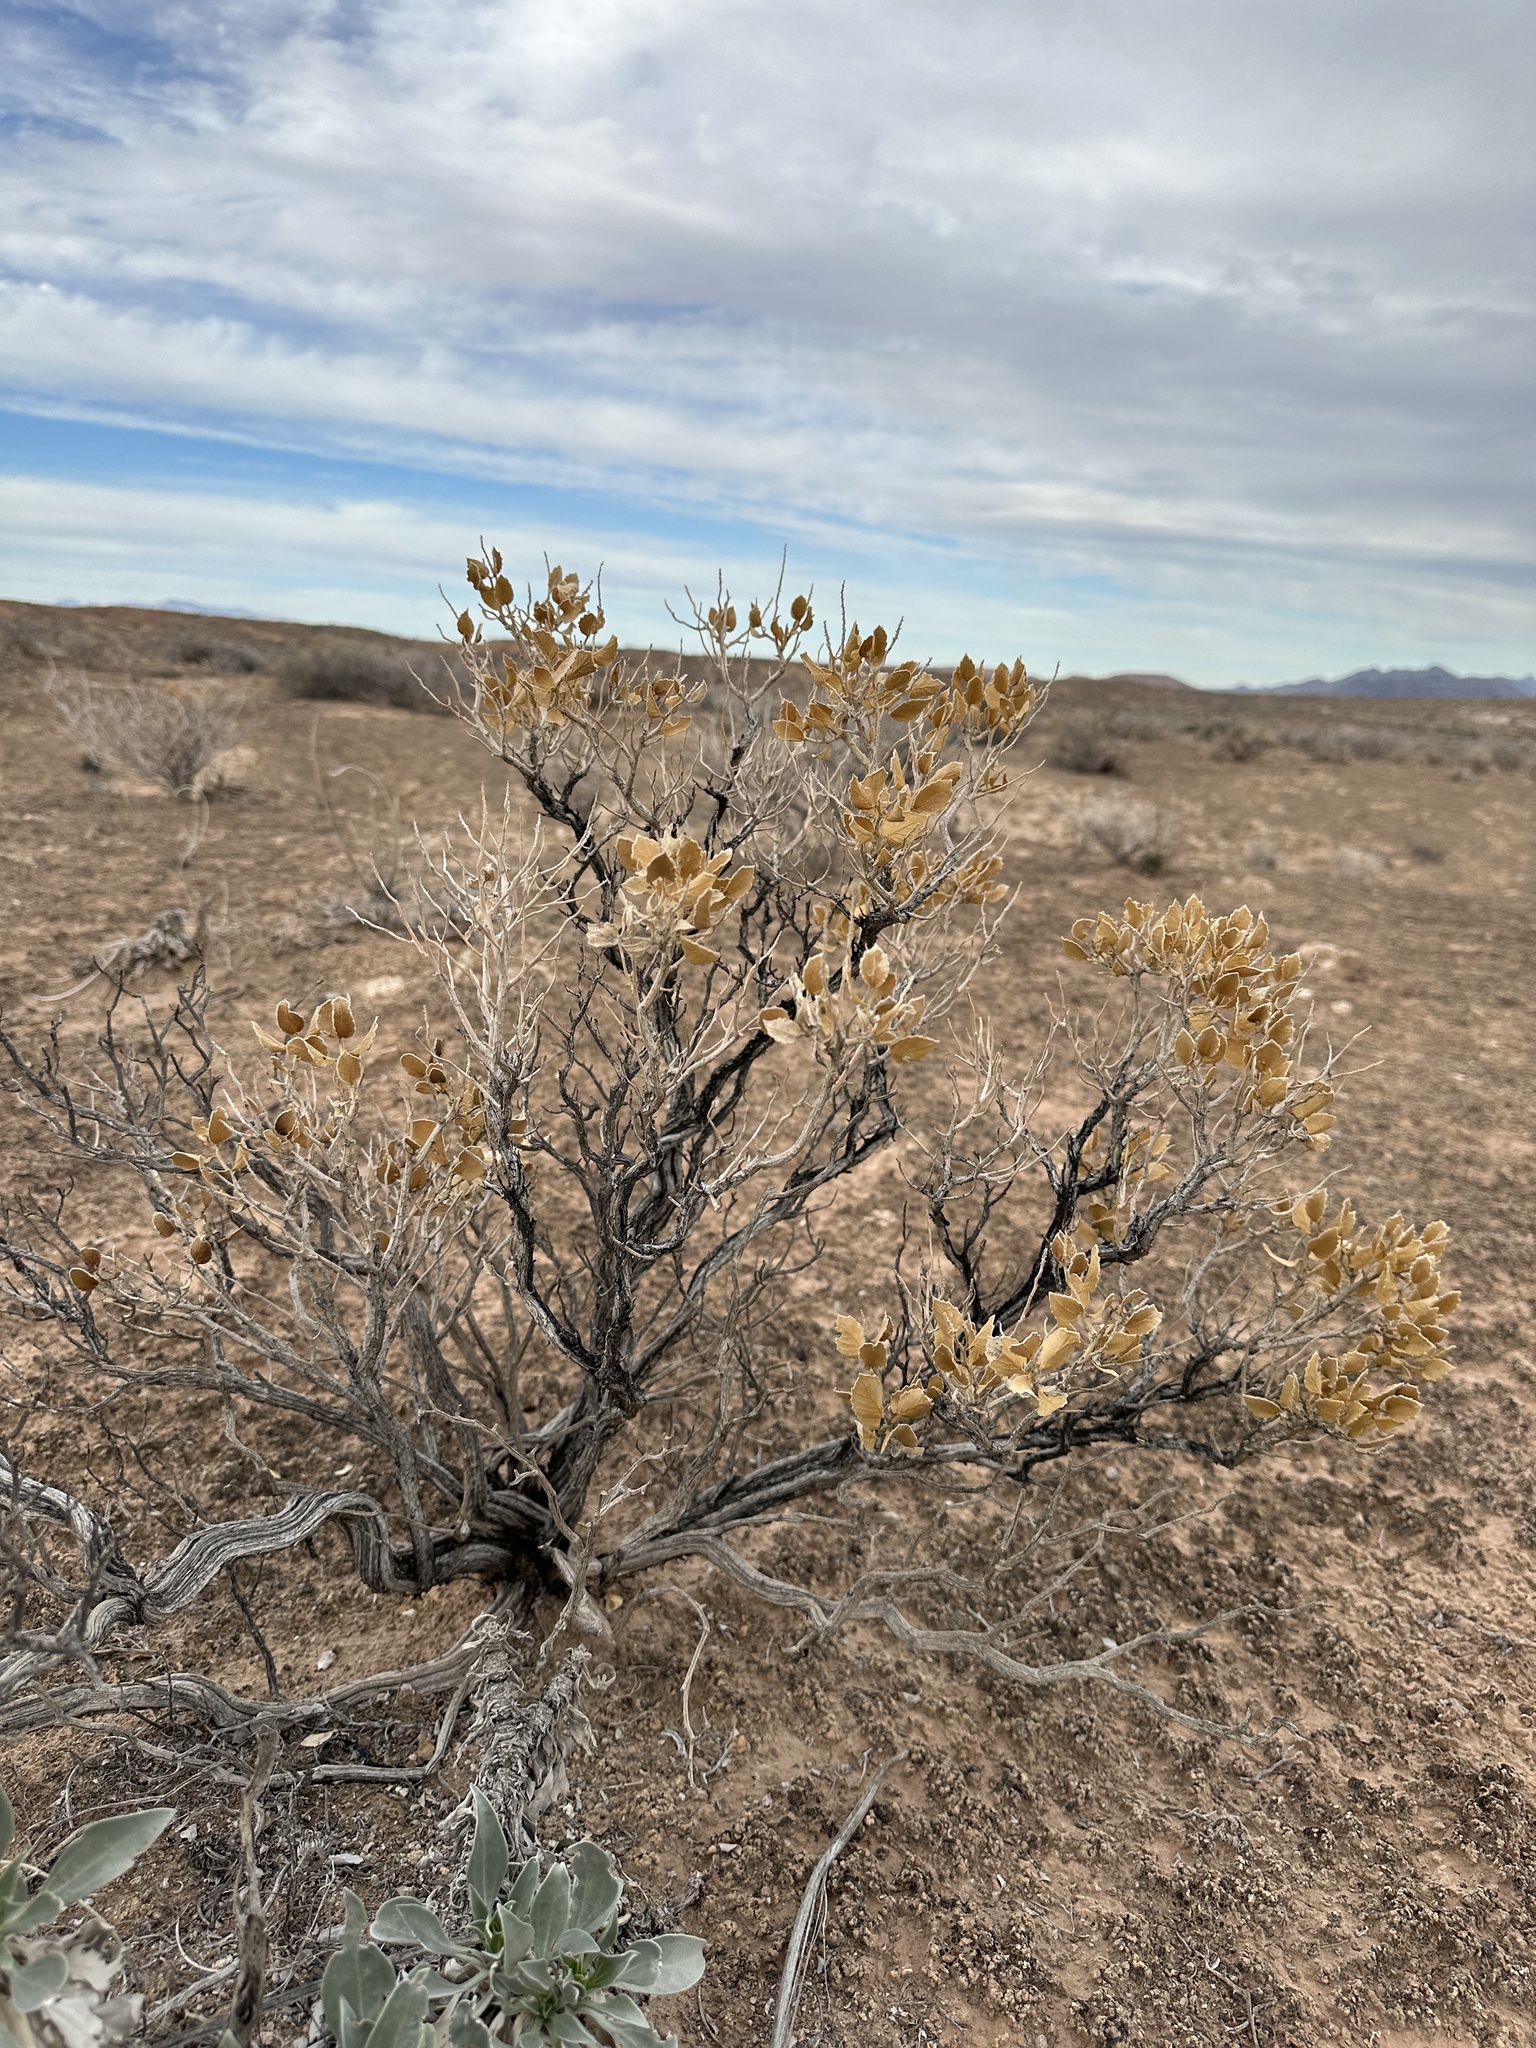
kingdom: Plantae
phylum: Tracheophyta
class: Magnoliopsida
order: Cornales
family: Loasaceae
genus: Petalonyx
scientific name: Petalonyx nitidus
